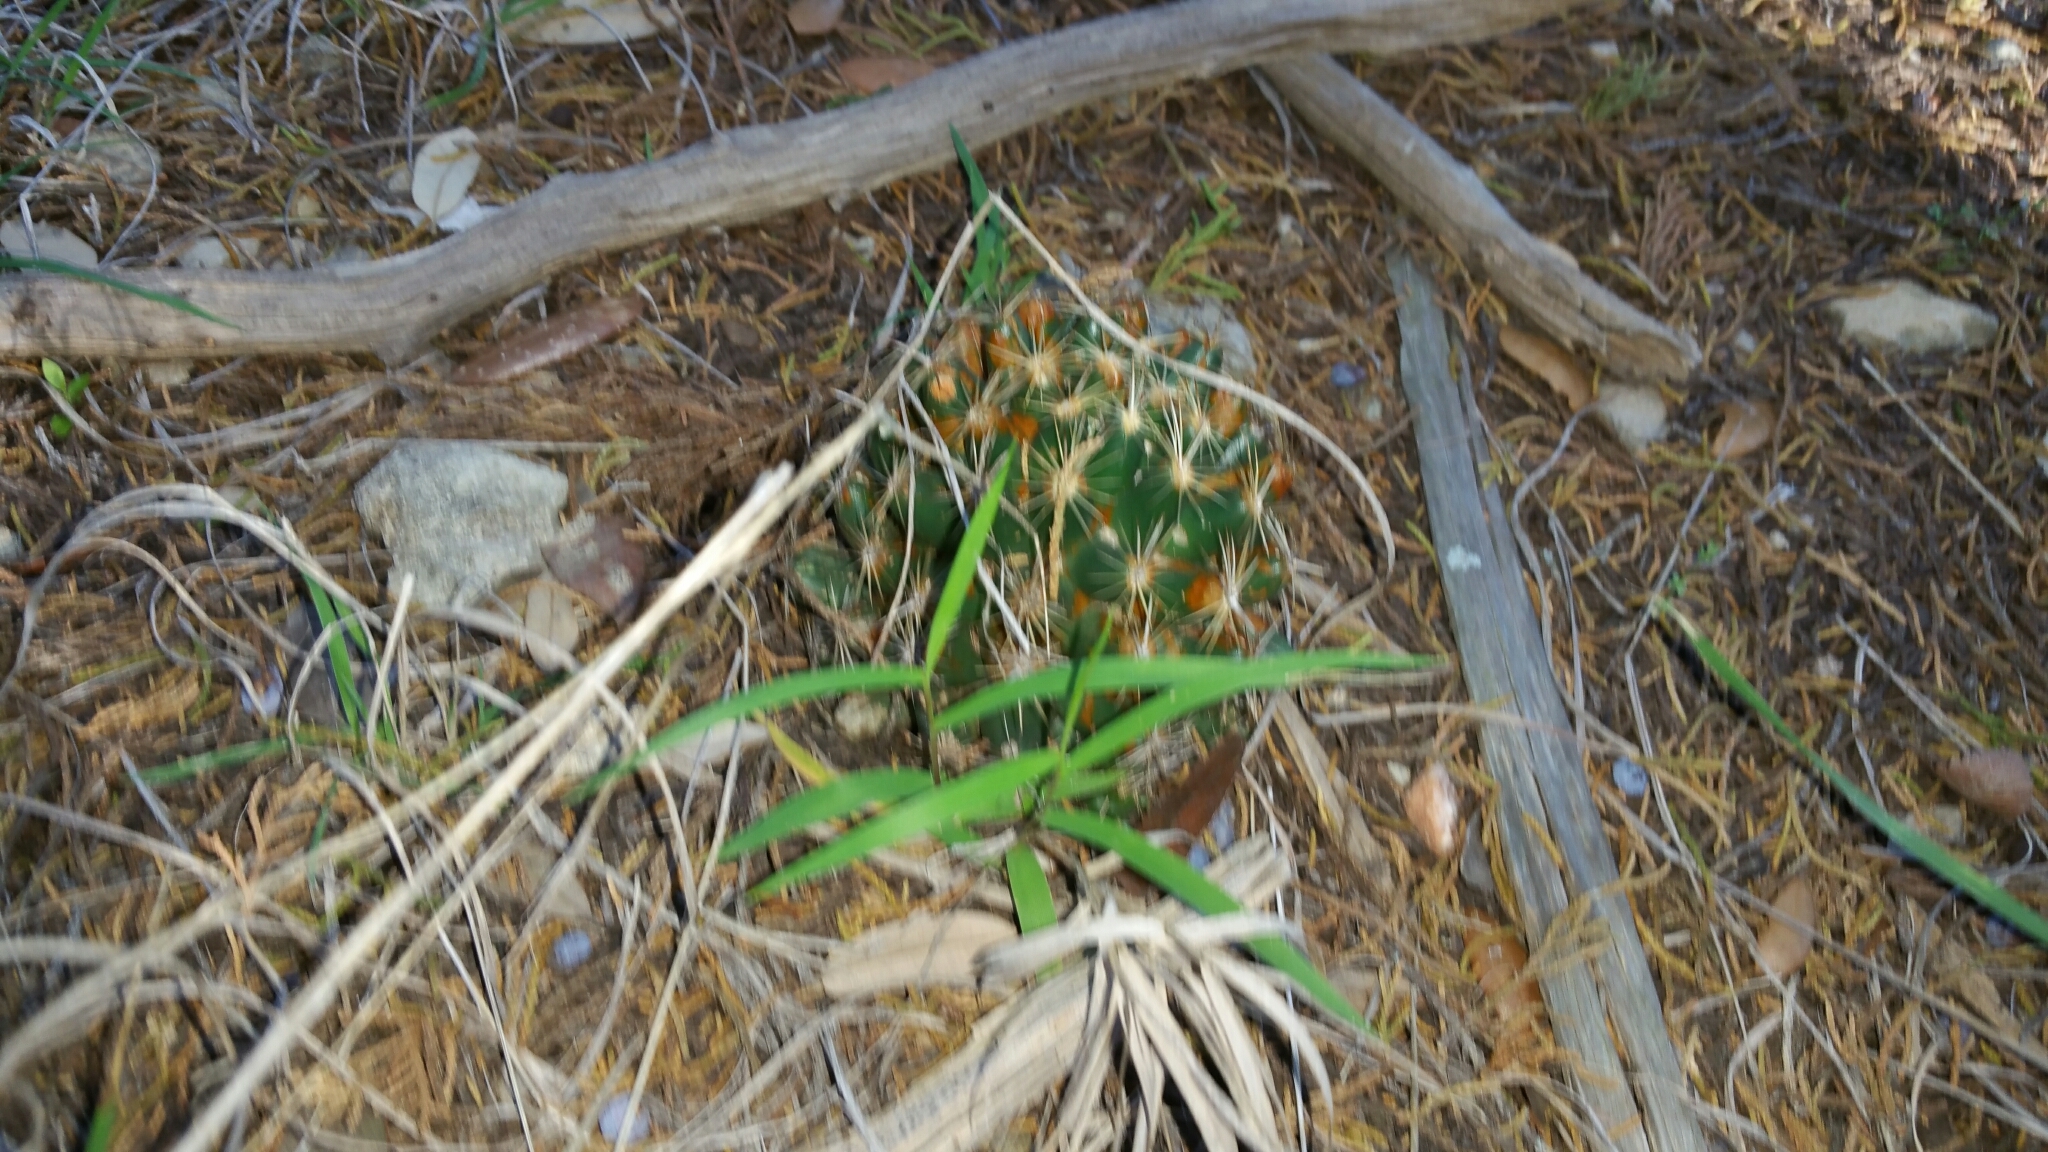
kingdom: Plantae
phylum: Tracheophyta
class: Magnoliopsida
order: Caryophyllales
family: Cactaceae
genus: Coryphantha
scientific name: Coryphantha sulcata
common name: Finger cactus
